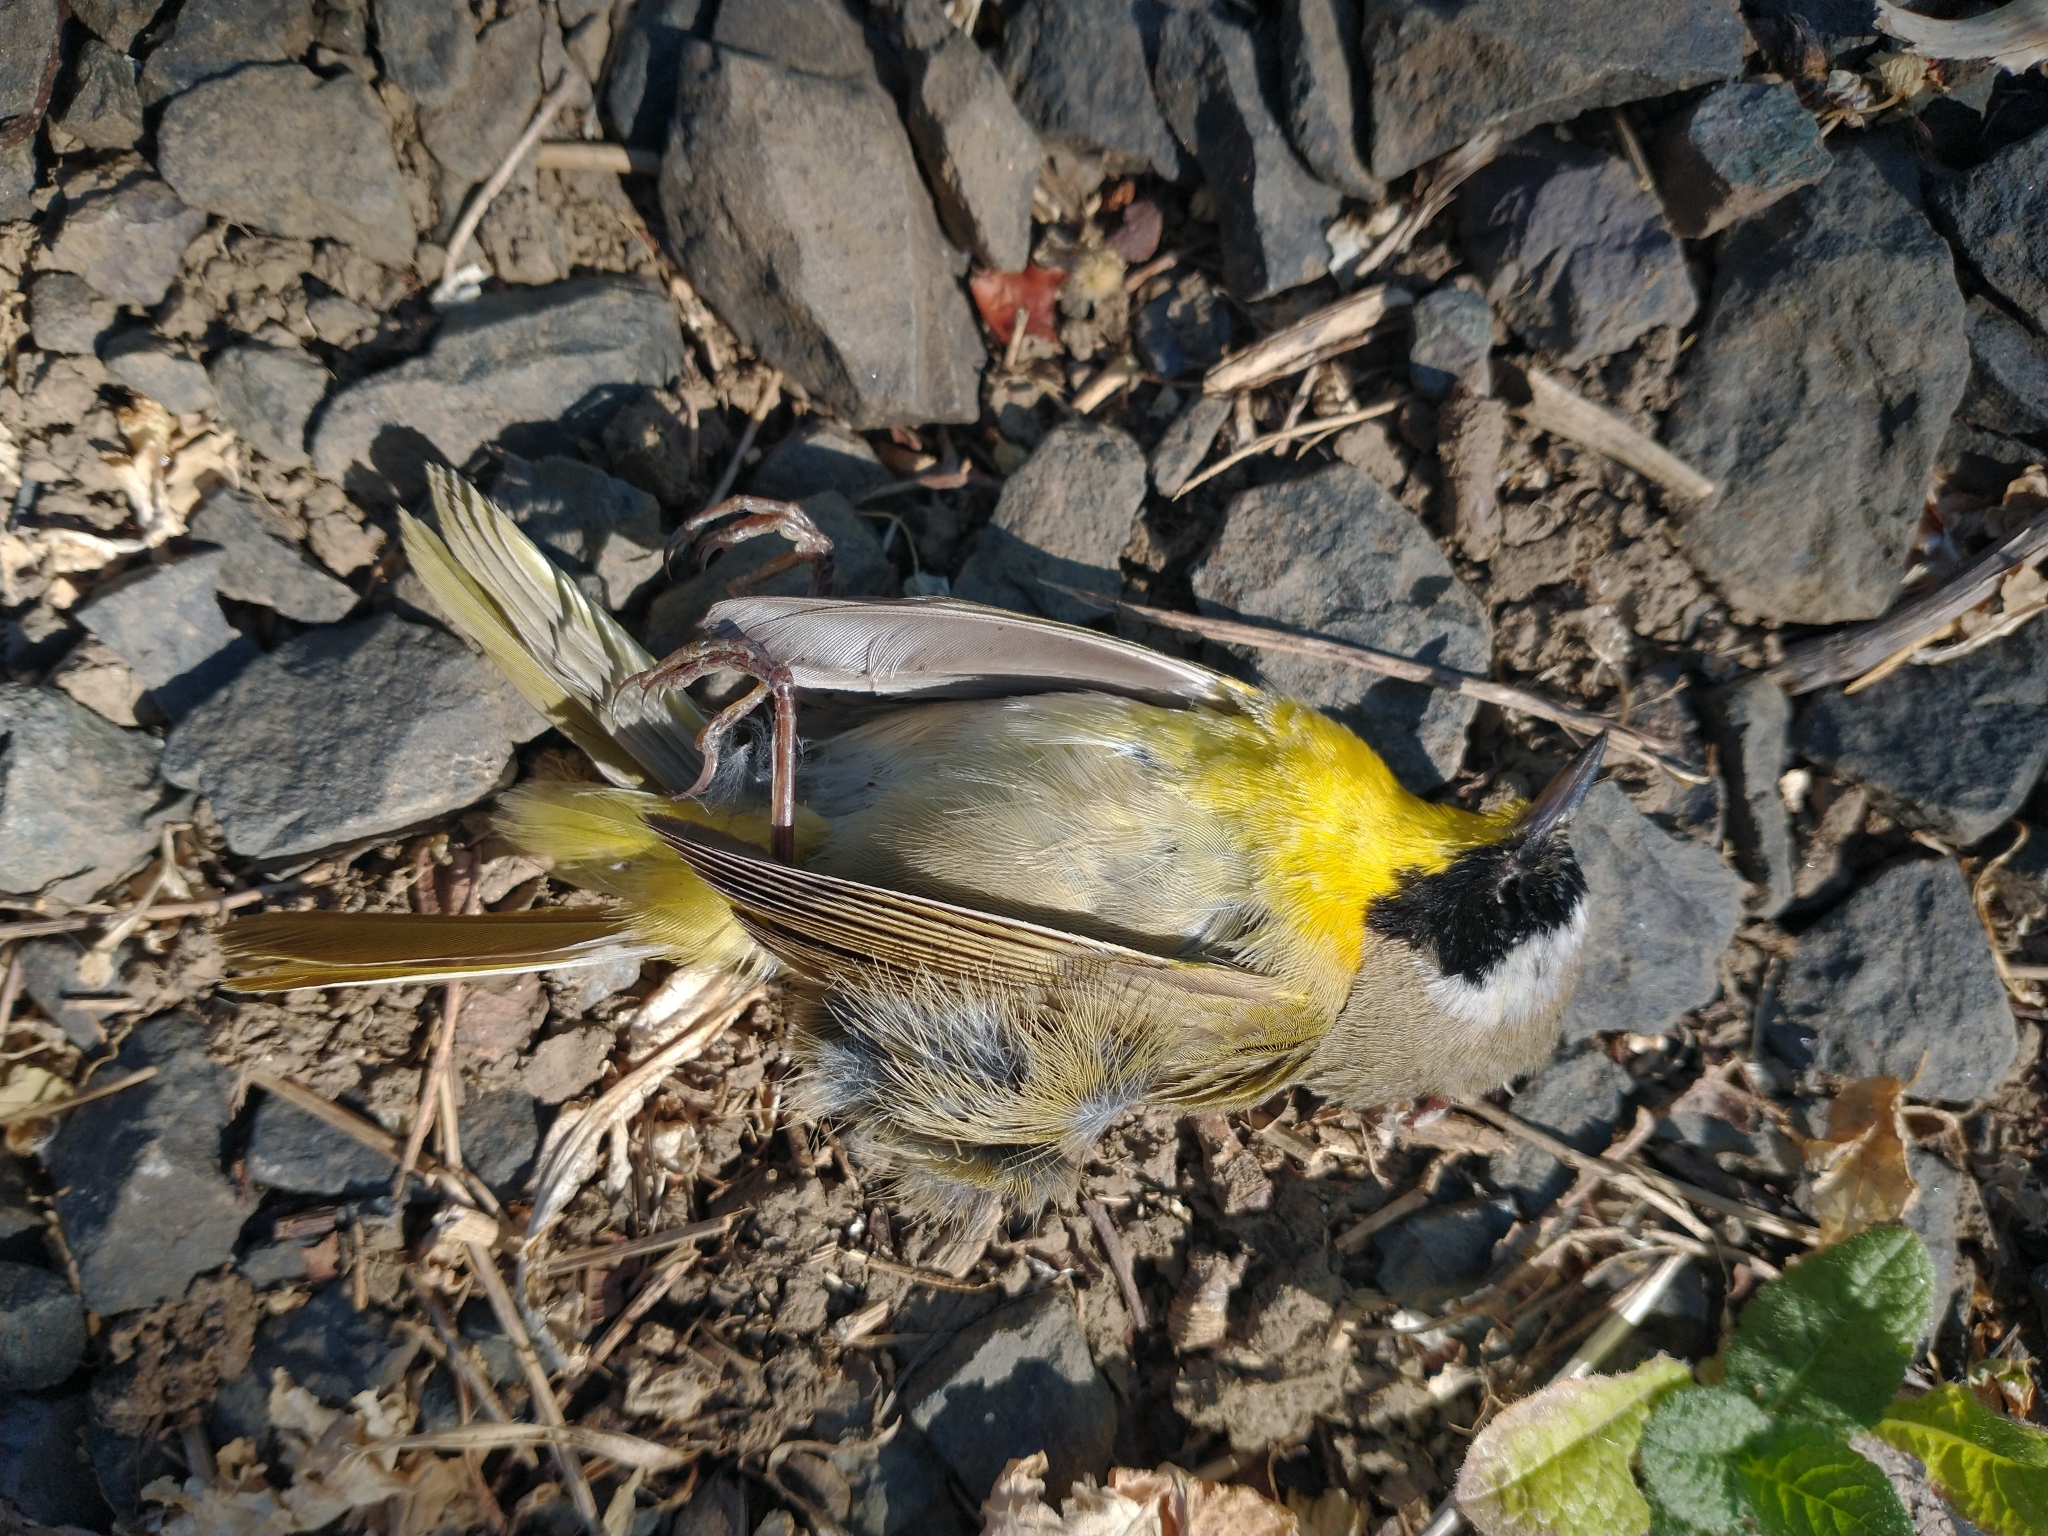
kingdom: Animalia
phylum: Chordata
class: Aves
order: Passeriformes
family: Parulidae
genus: Geothlypis
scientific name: Geothlypis trichas
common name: Common yellowthroat
